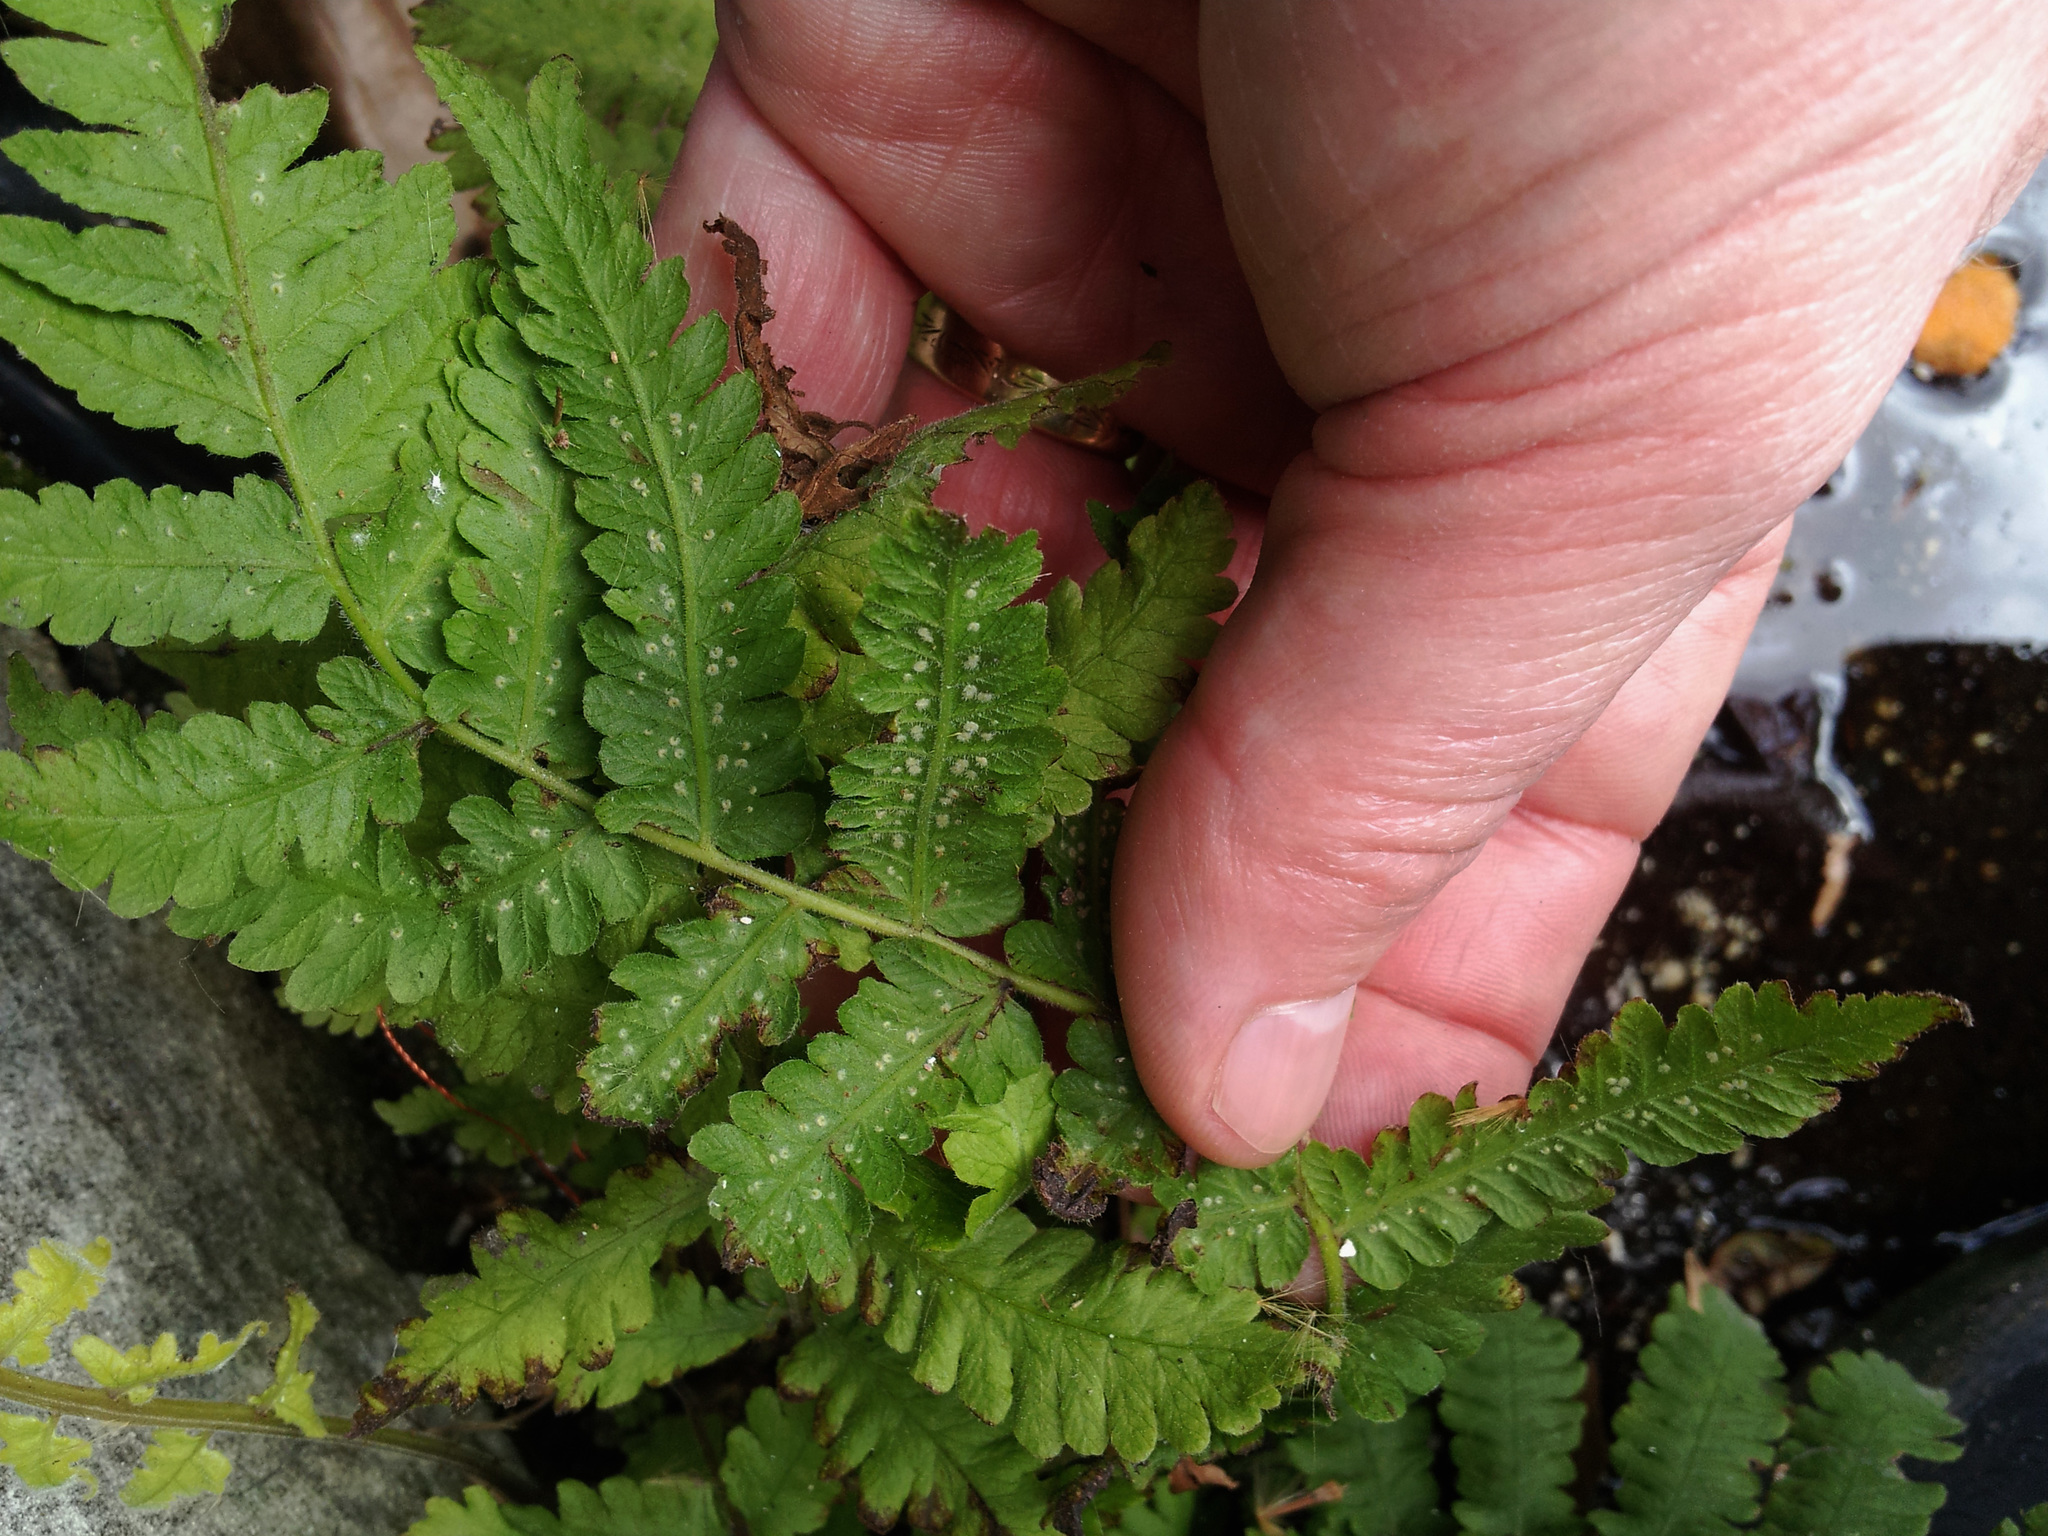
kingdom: Plantae
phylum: Tracheophyta
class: Polypodiopsida
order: Polypodiales
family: Thelypteridaceae
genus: Christella
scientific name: Christella dentata
